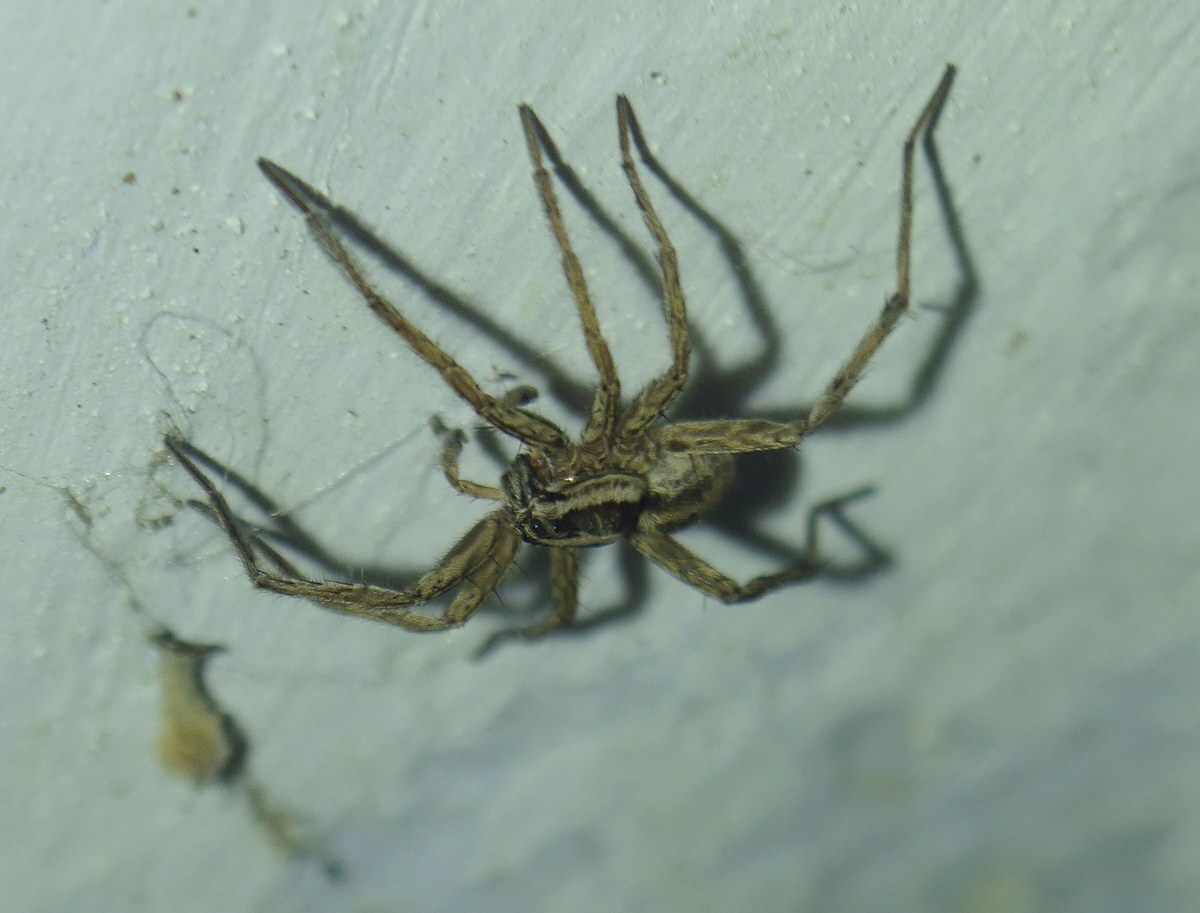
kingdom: Animalia
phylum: Arthropoda
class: Arachnida
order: Araneae
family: Lycosidae
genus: Hogna
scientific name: Hogna radiata
